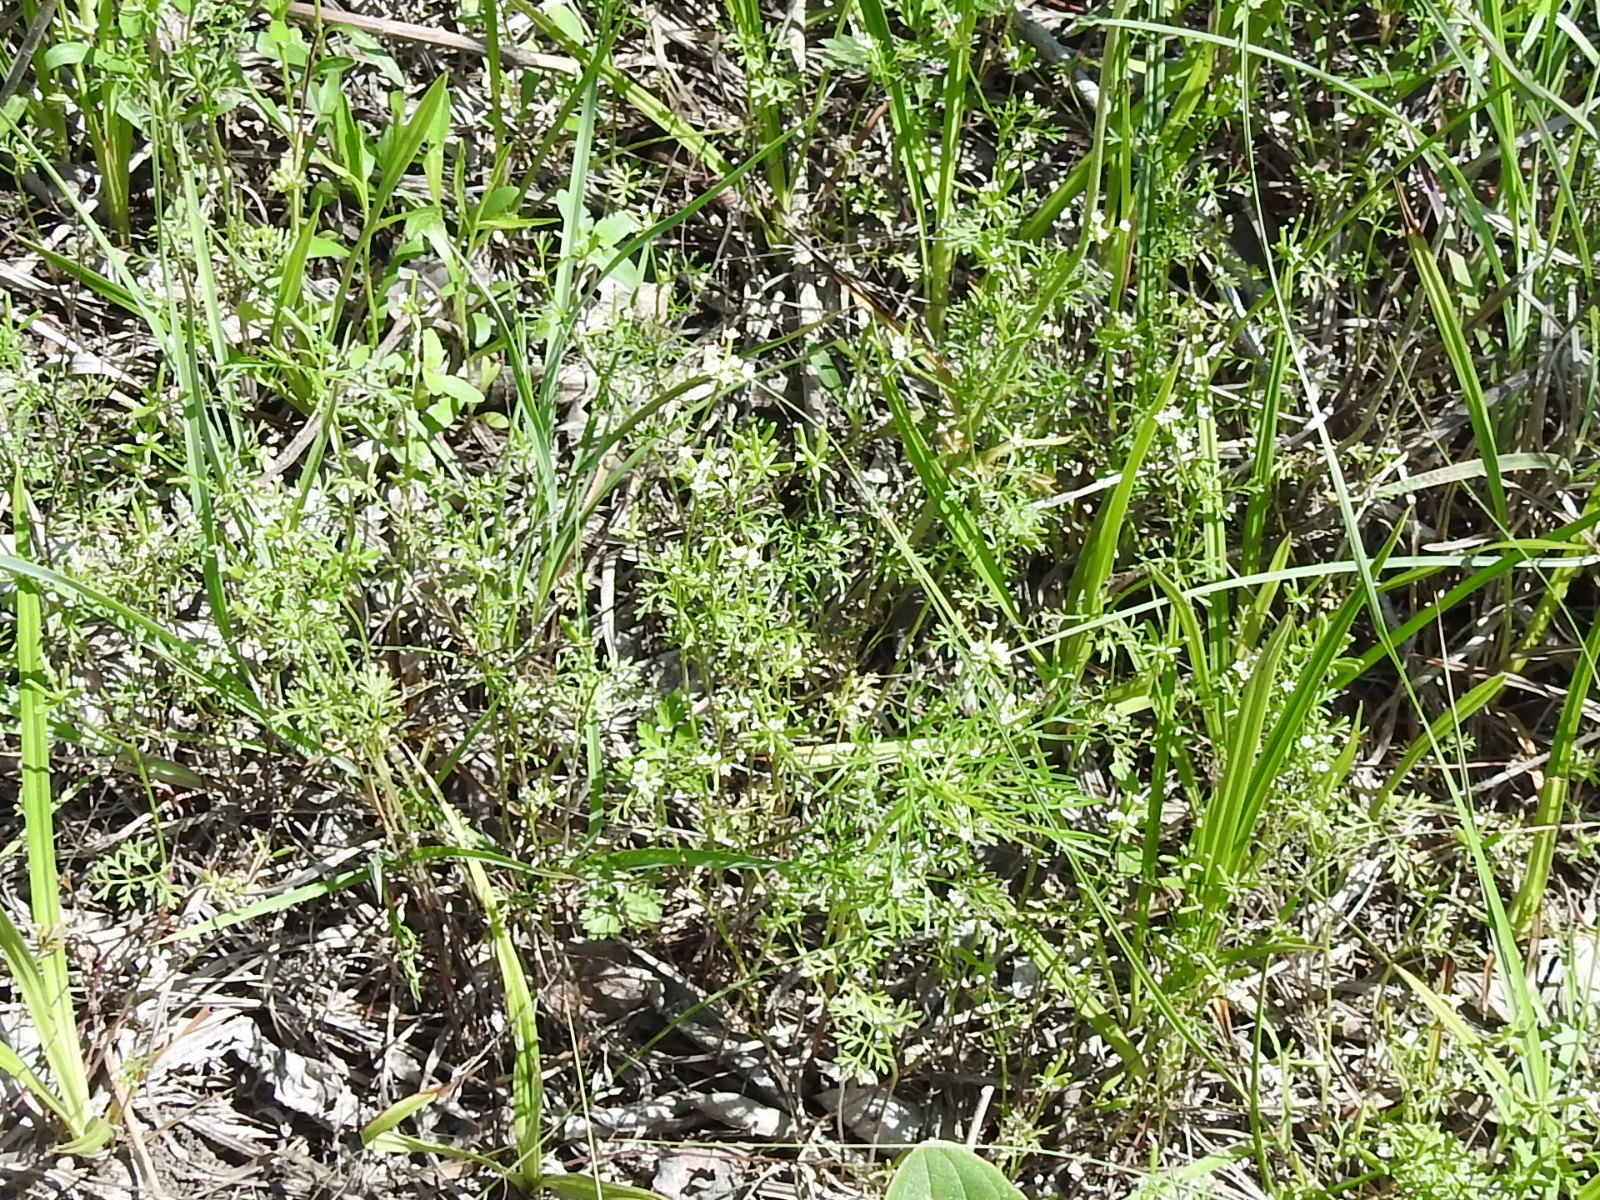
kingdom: Plantae
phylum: Tracheophyta
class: Magnoliopsida
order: Apiales
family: Apiaceae
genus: Chaerophyllum
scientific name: Chaerophyllum tainturieri
